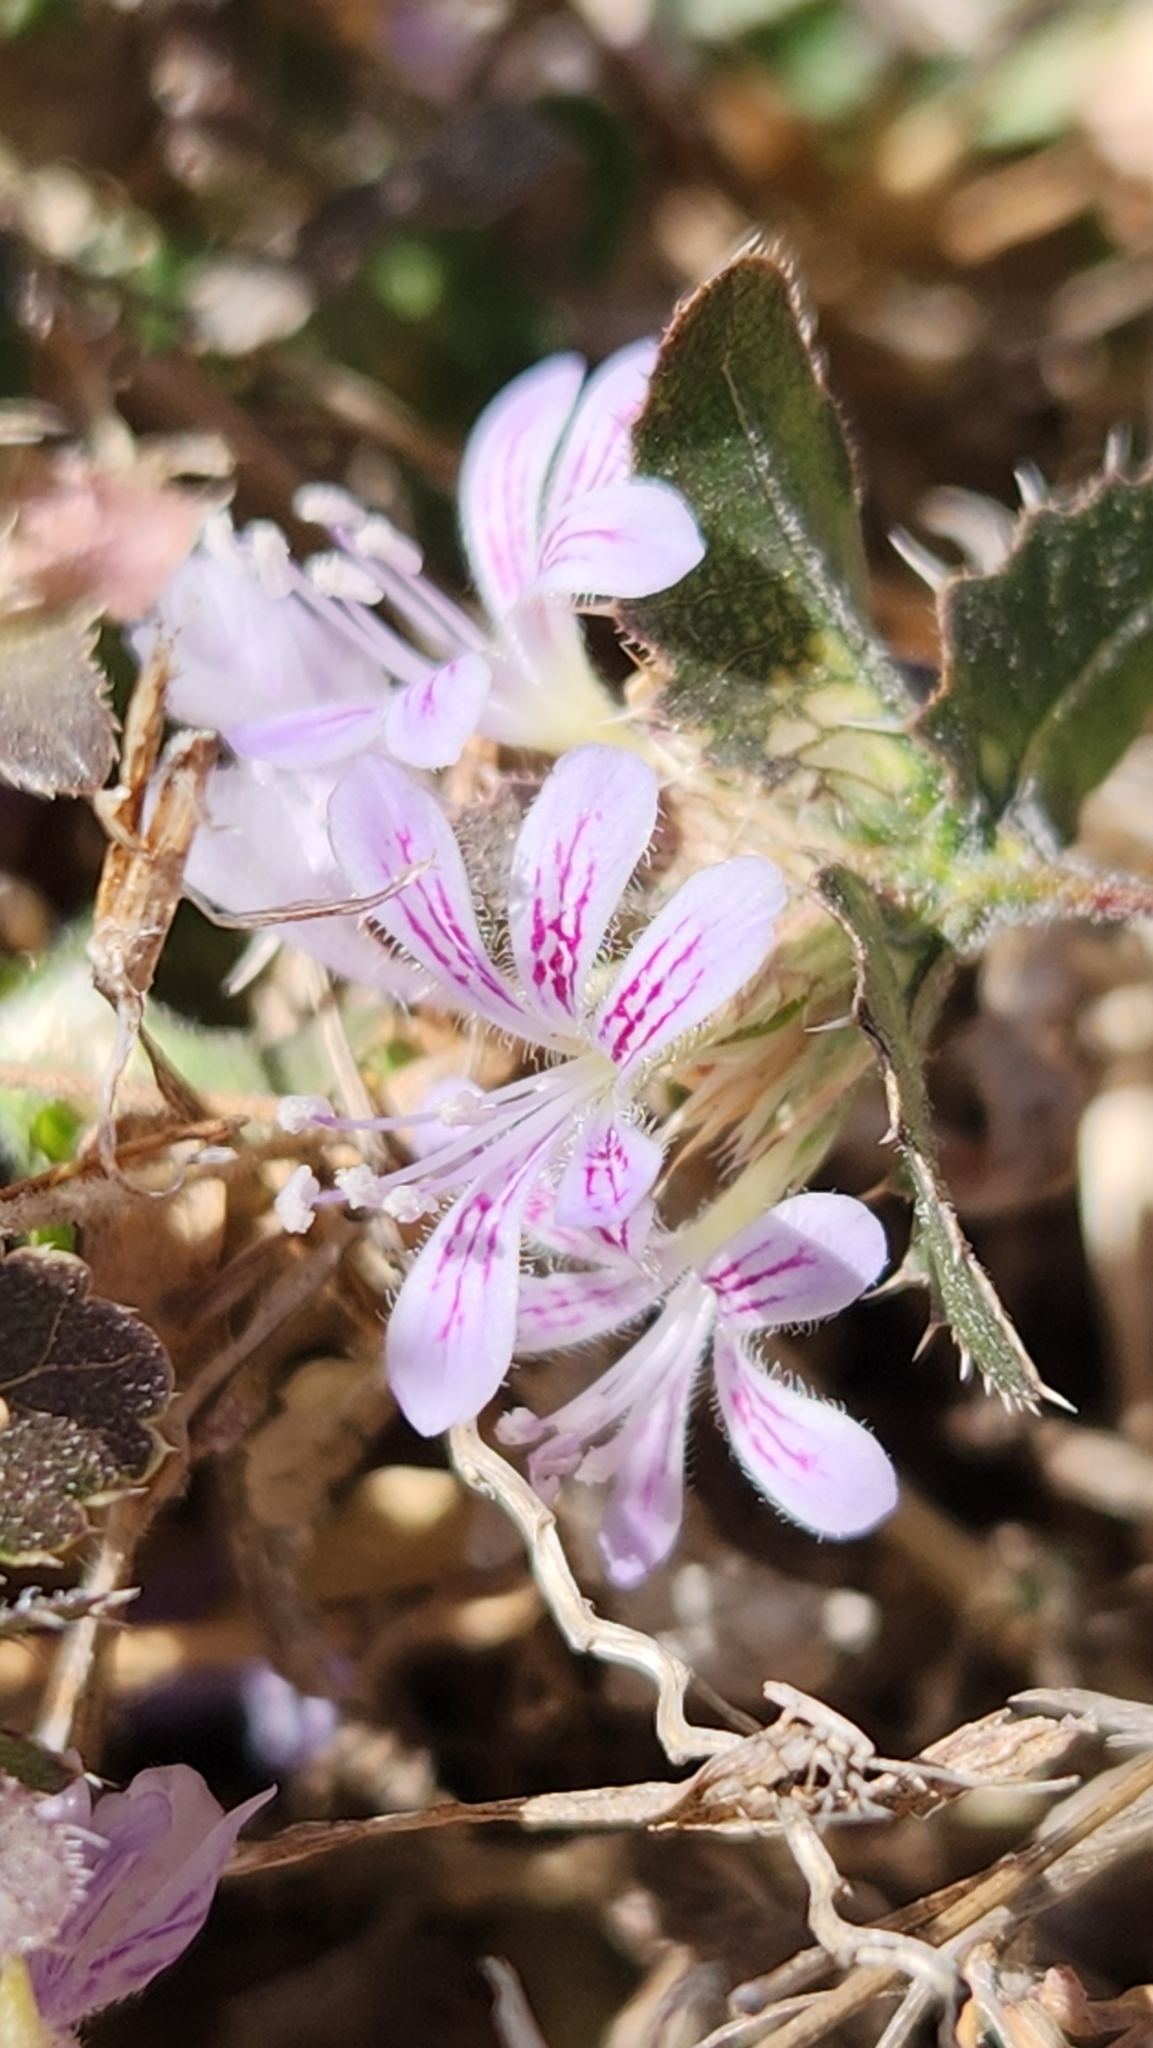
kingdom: Plantae
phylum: Tracheophyta
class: Magnoliopsida
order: Ericales
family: Polemoniaceae
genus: Loeselia
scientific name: Loeselia ciliata
